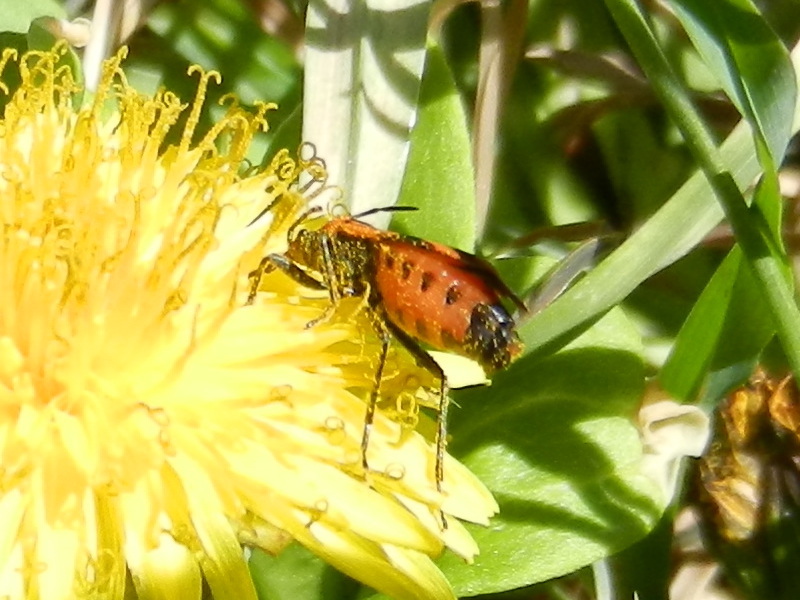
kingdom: Animalia
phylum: Arthropoda
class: Insecta
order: Hemiptera
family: Lygaeidae
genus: Lygaeus
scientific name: Lygaeus turcicus
